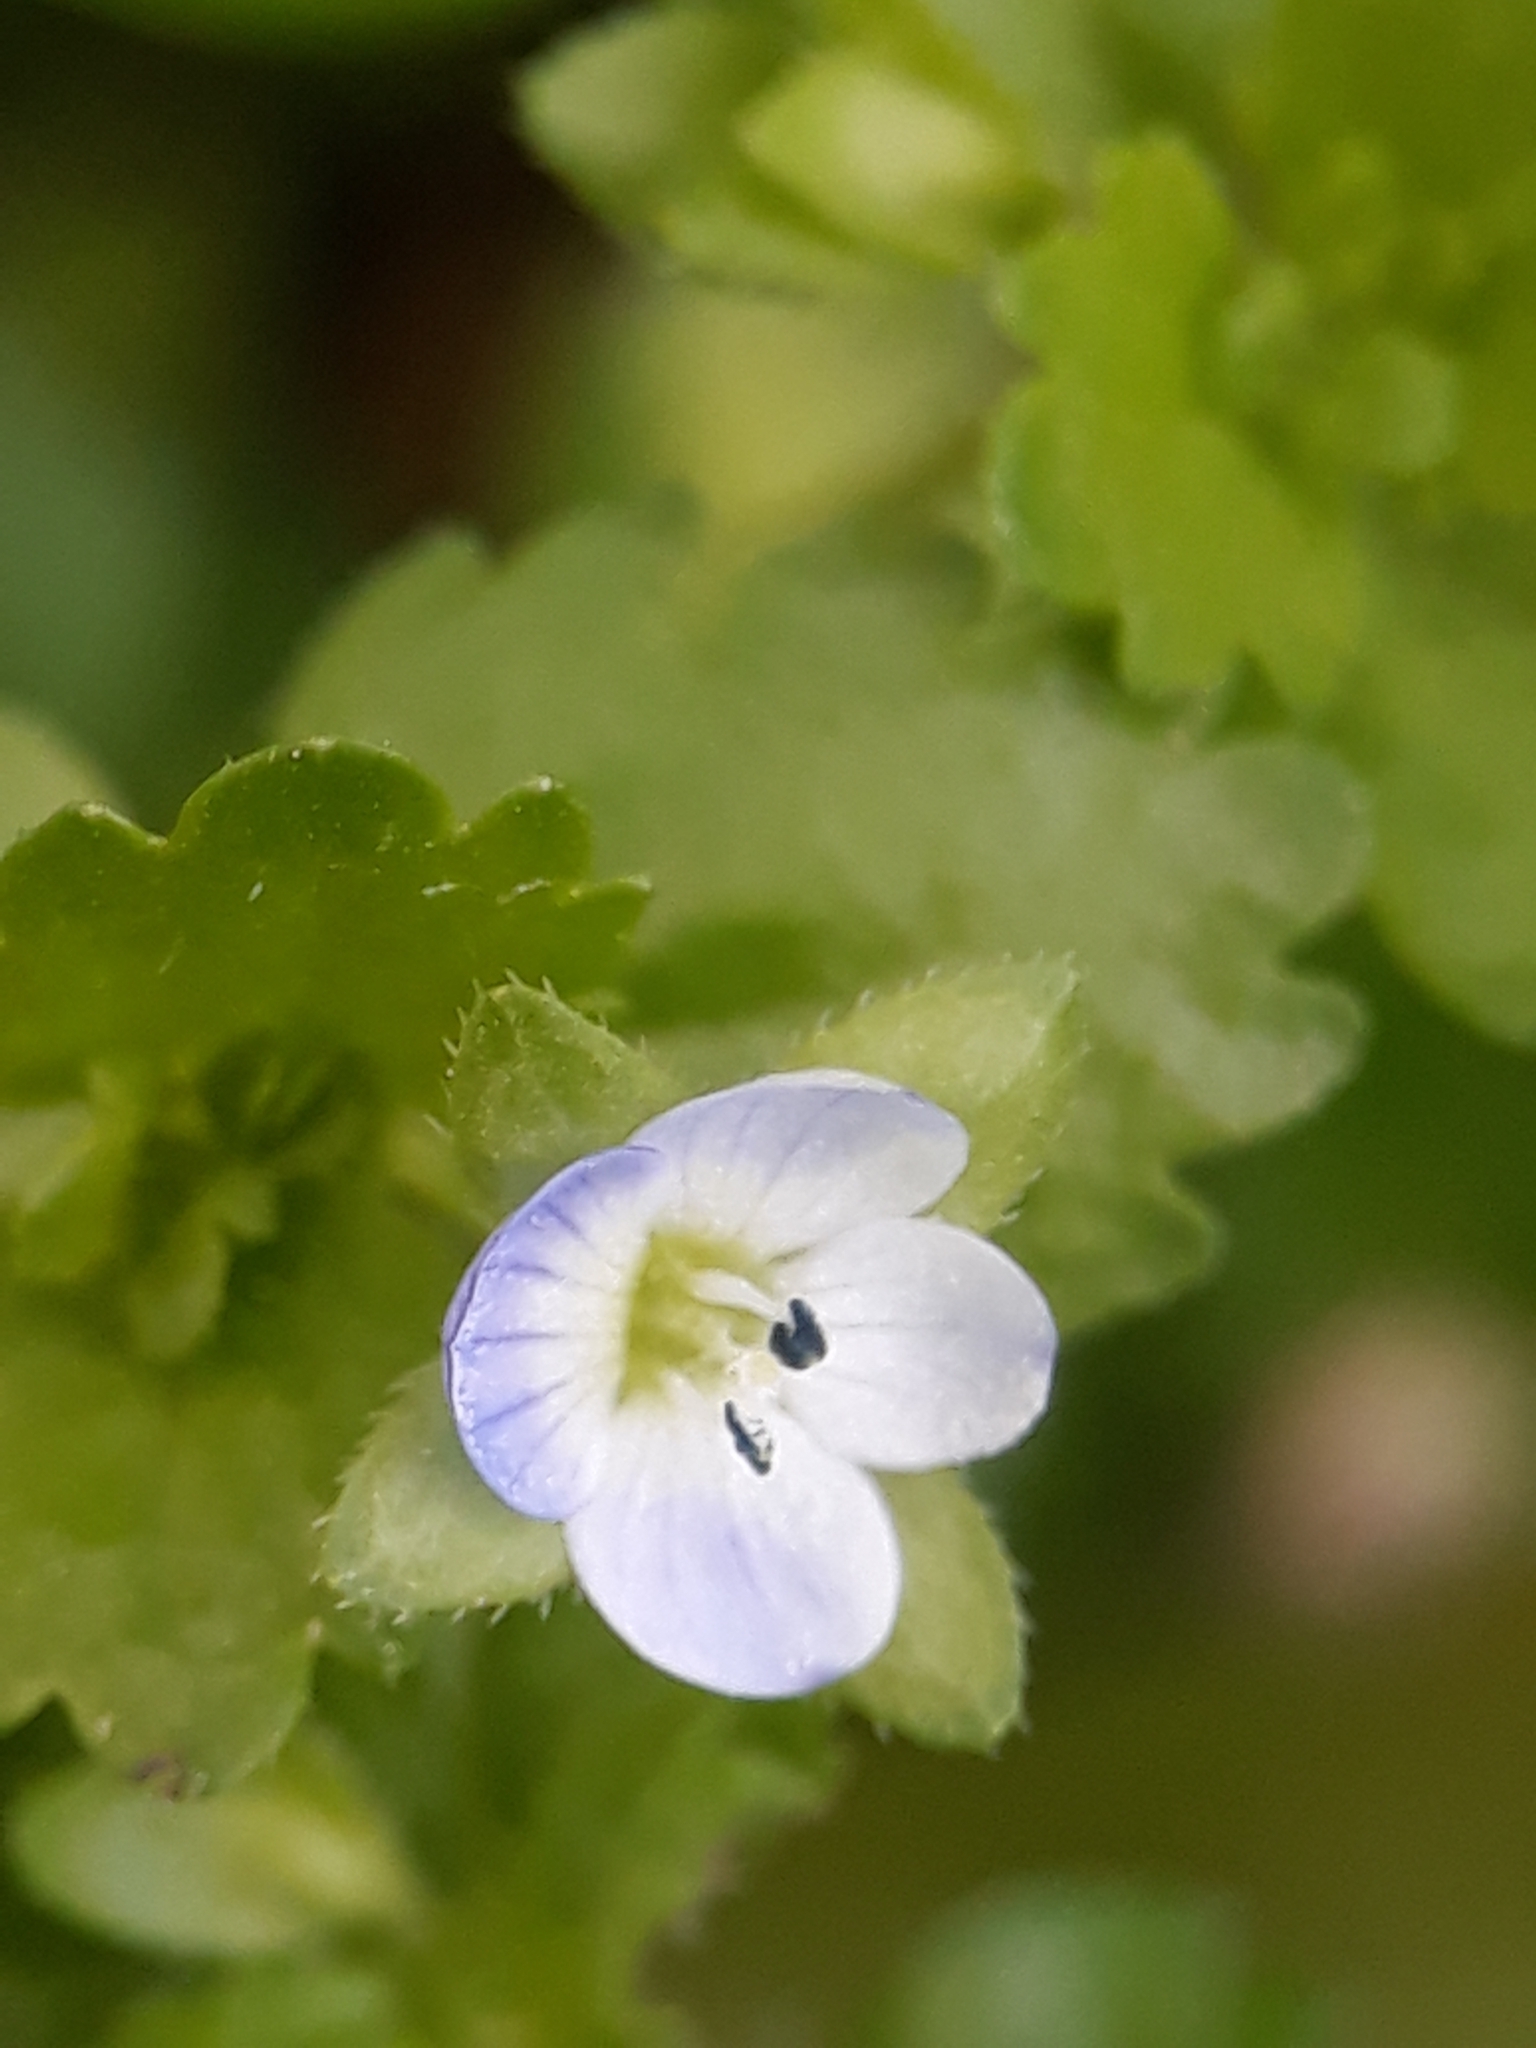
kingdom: Plantae
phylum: Tracheophyta
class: Magnoliopsida
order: Lamiales
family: Plantaginaceae
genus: Veronica
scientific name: Veronica agrestis
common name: Green field-speedwell
